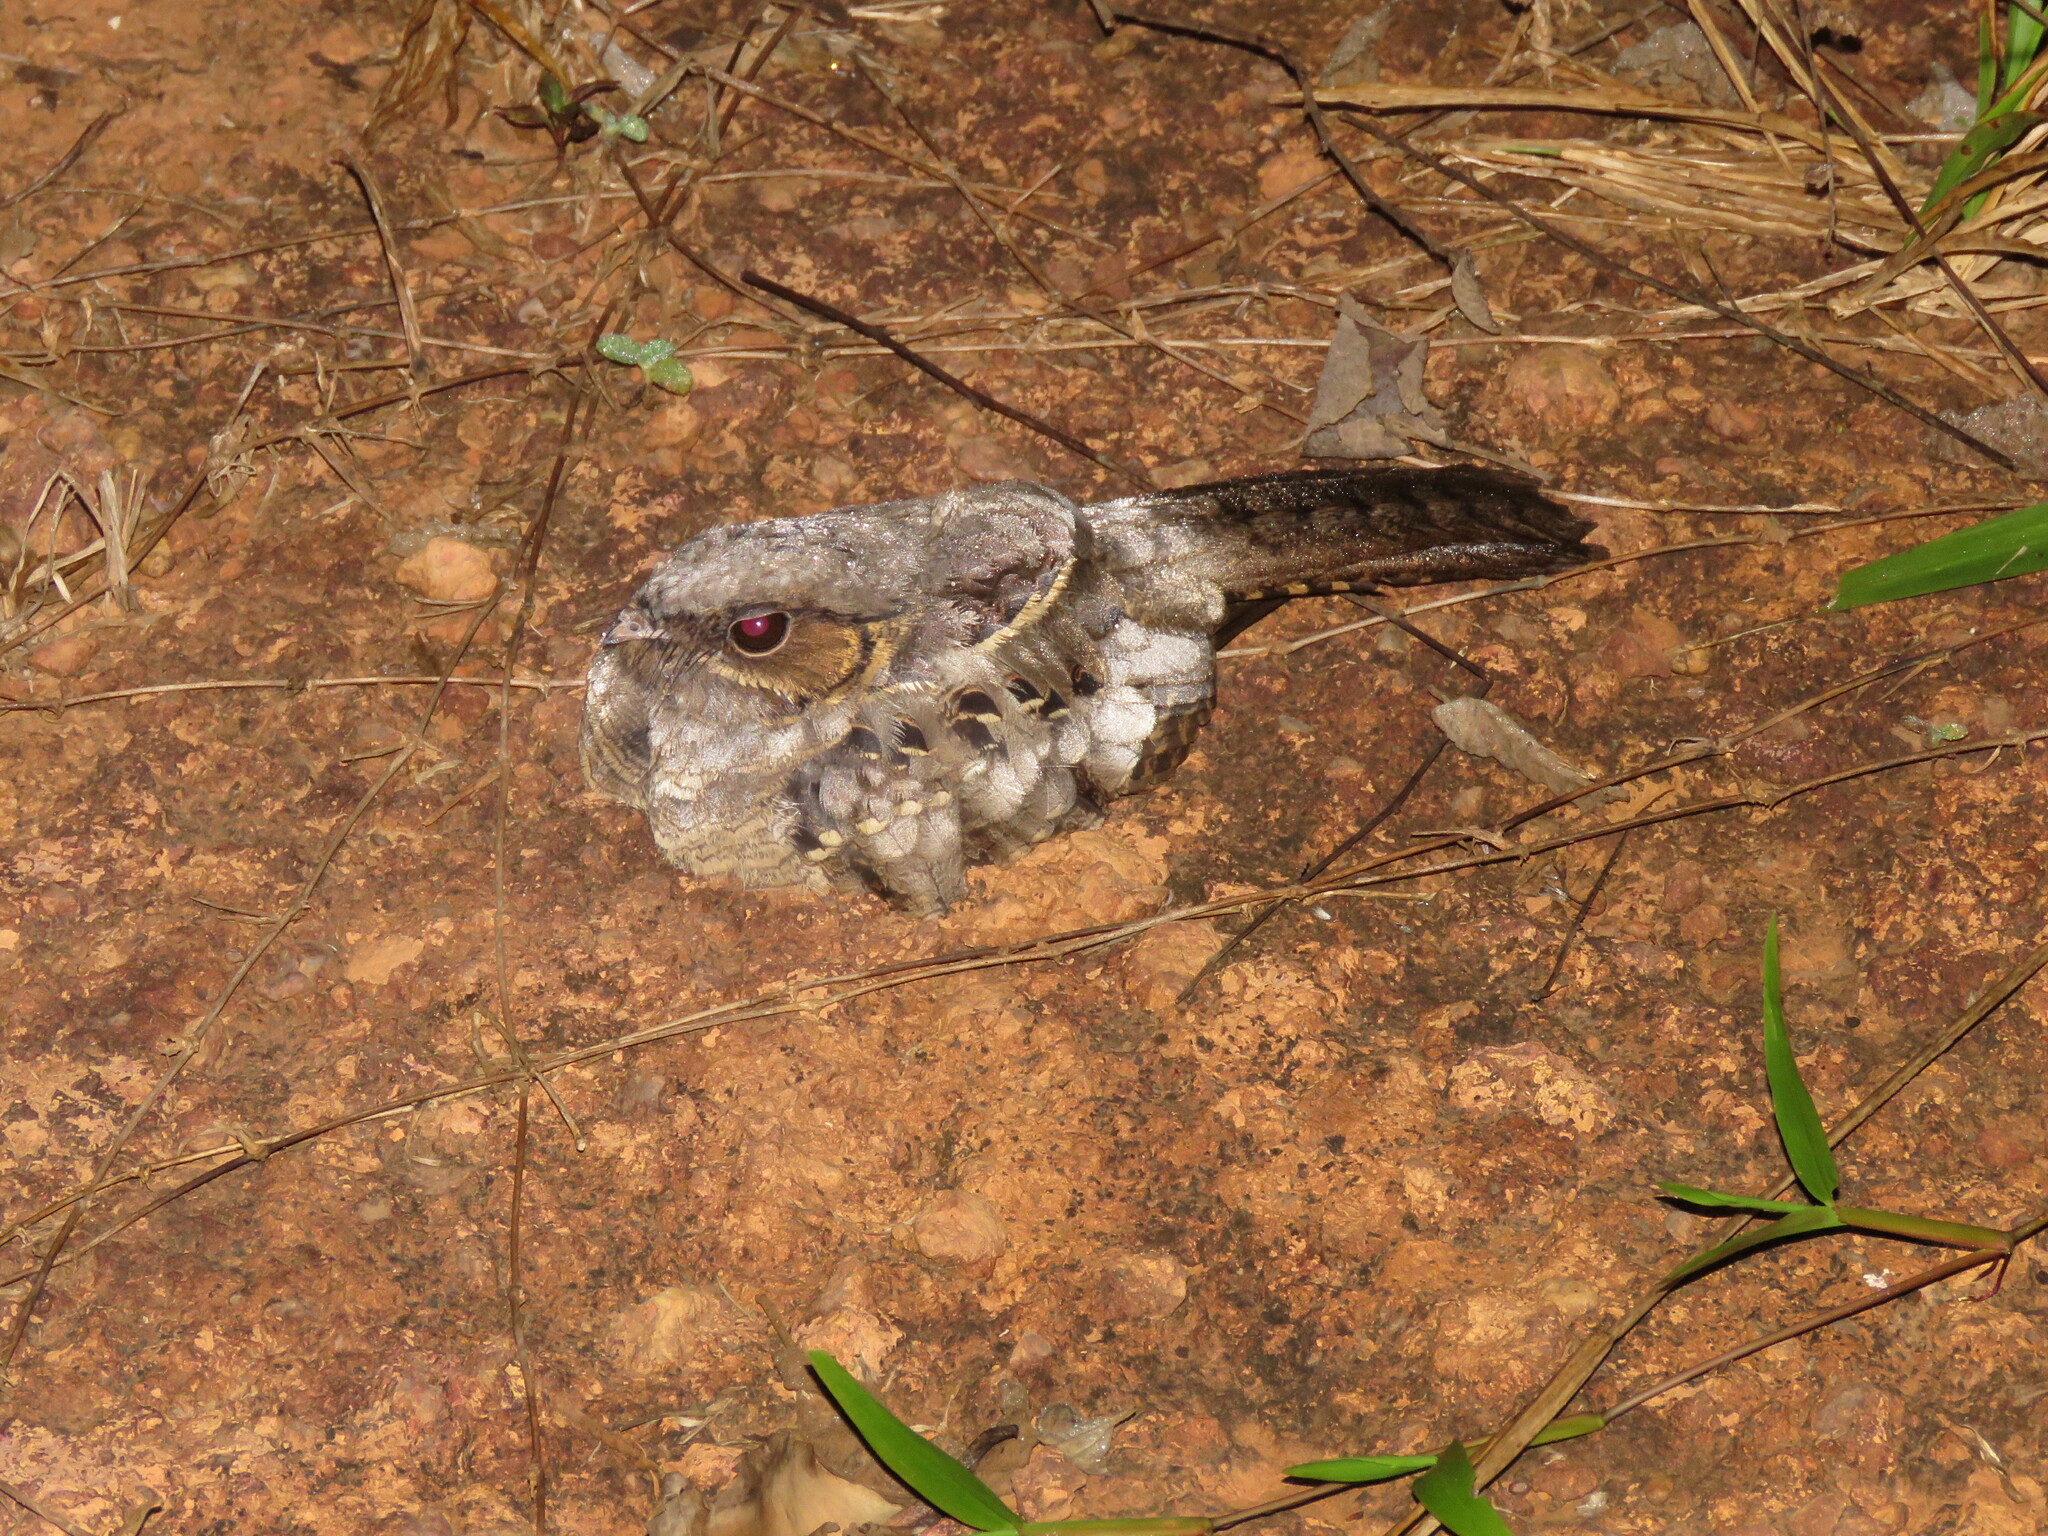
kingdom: Animalia
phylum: Chordata
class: Aves
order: Caprimulgiformes
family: Caprimulgidae
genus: Nyctidromus
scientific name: Nyctidromus albicollis
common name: Pauraque
